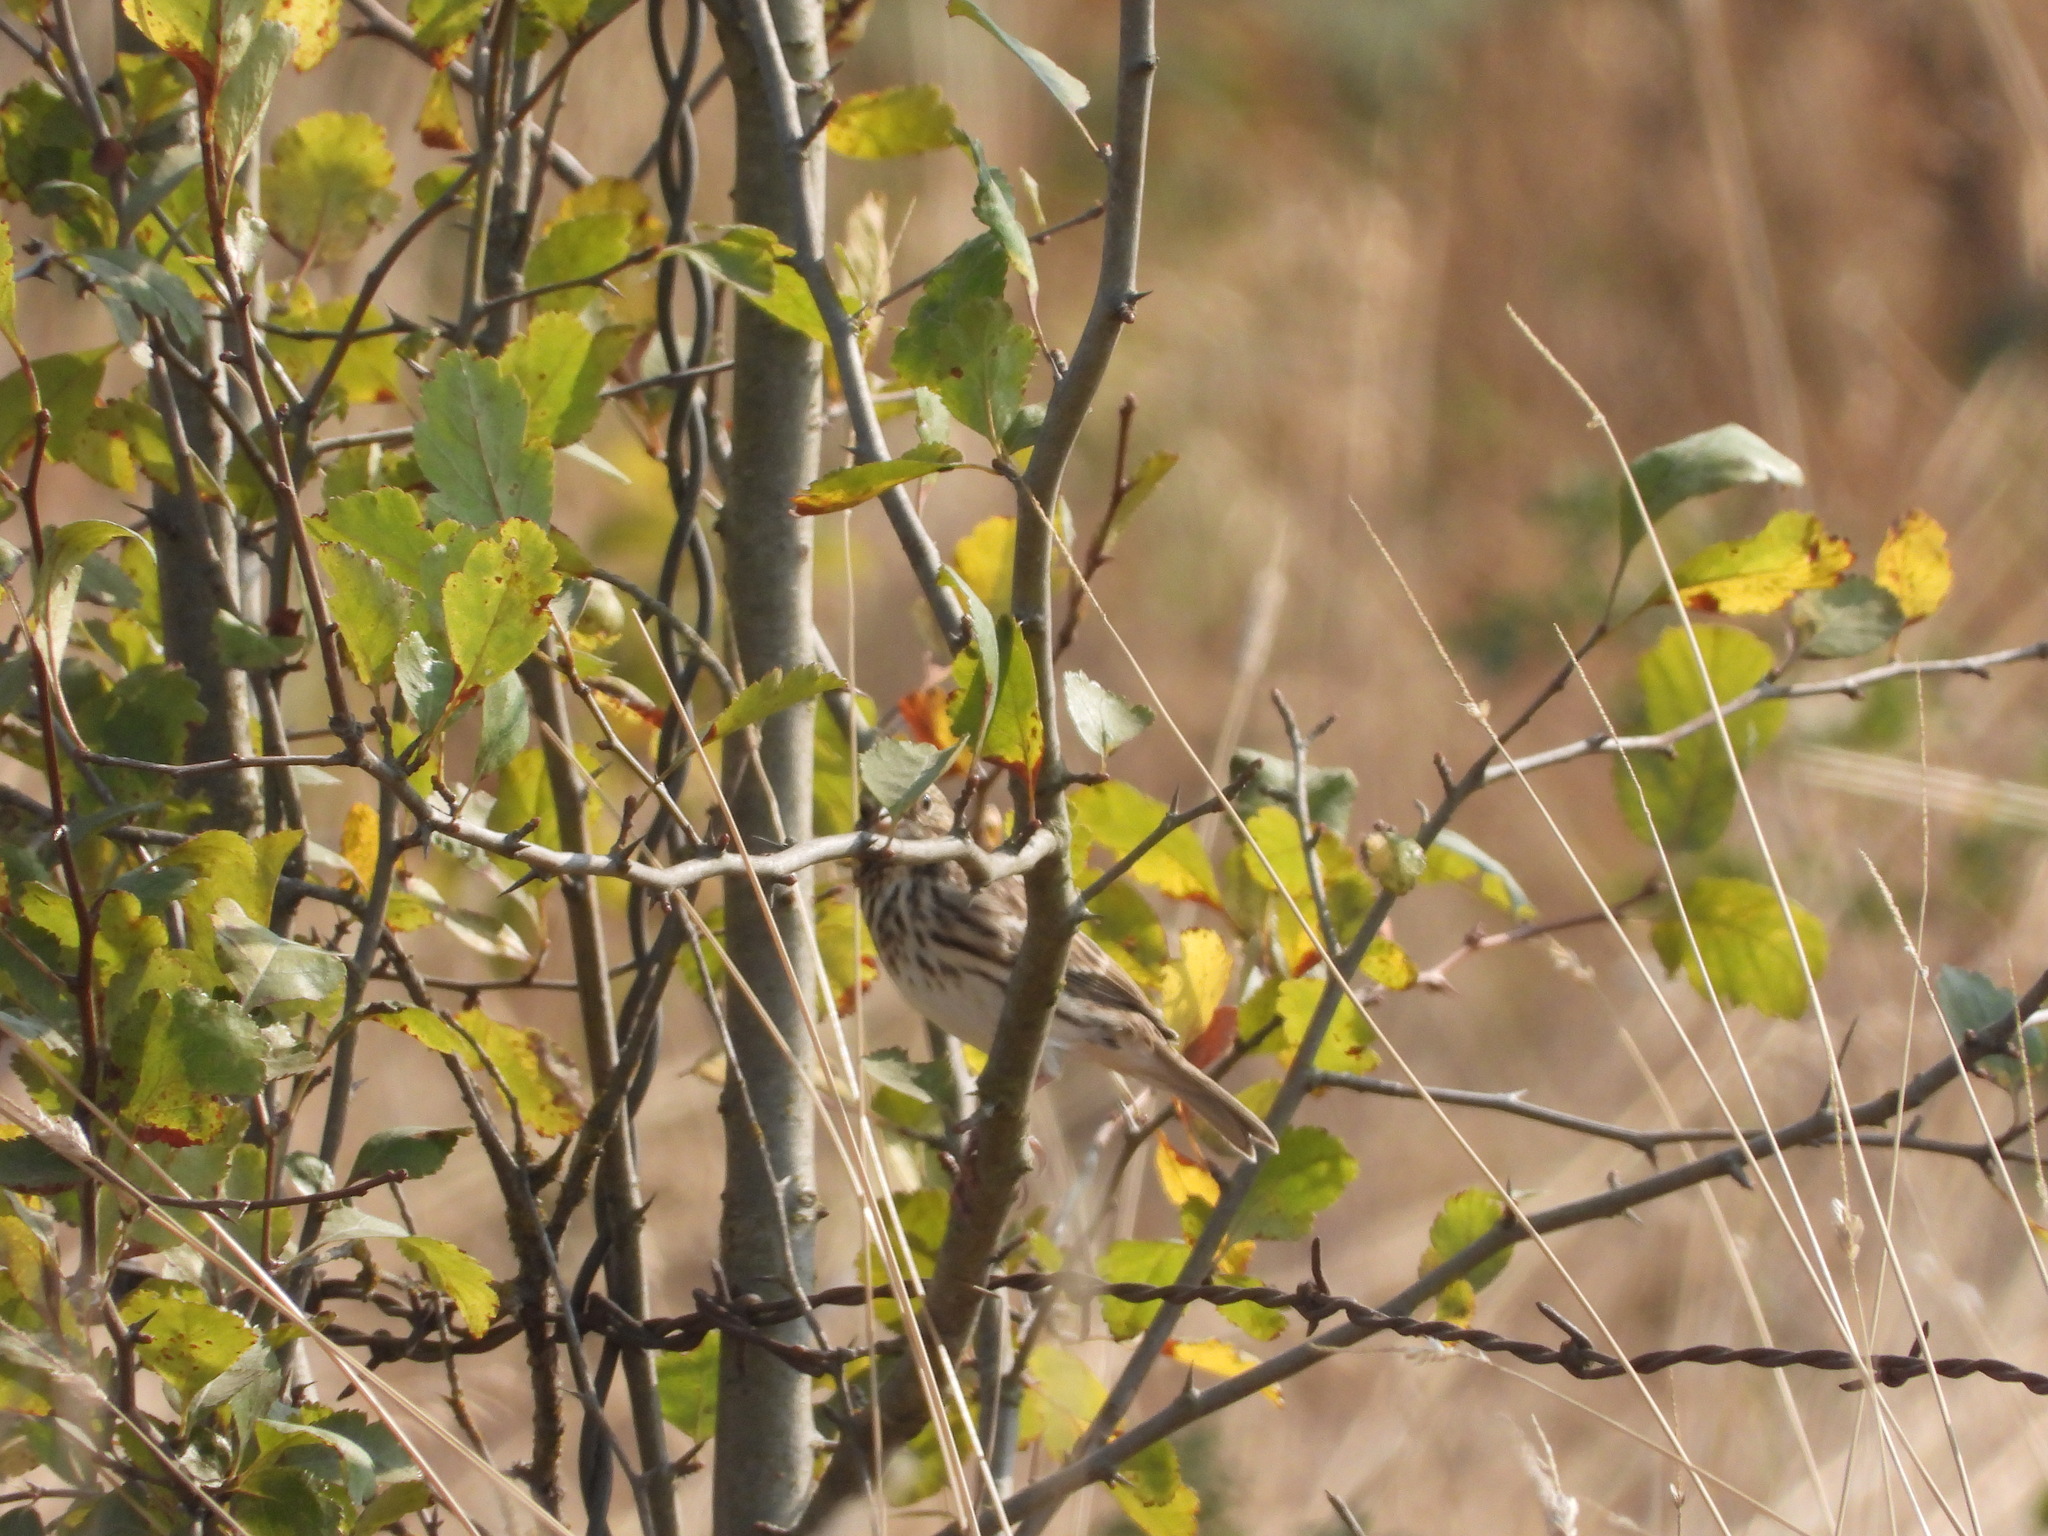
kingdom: Animalia
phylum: Chordata
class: Aves
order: Passeriformes
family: Passerellidae
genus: Passerculus
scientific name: Passerculus sandwichensis
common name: Savannah sparrow
